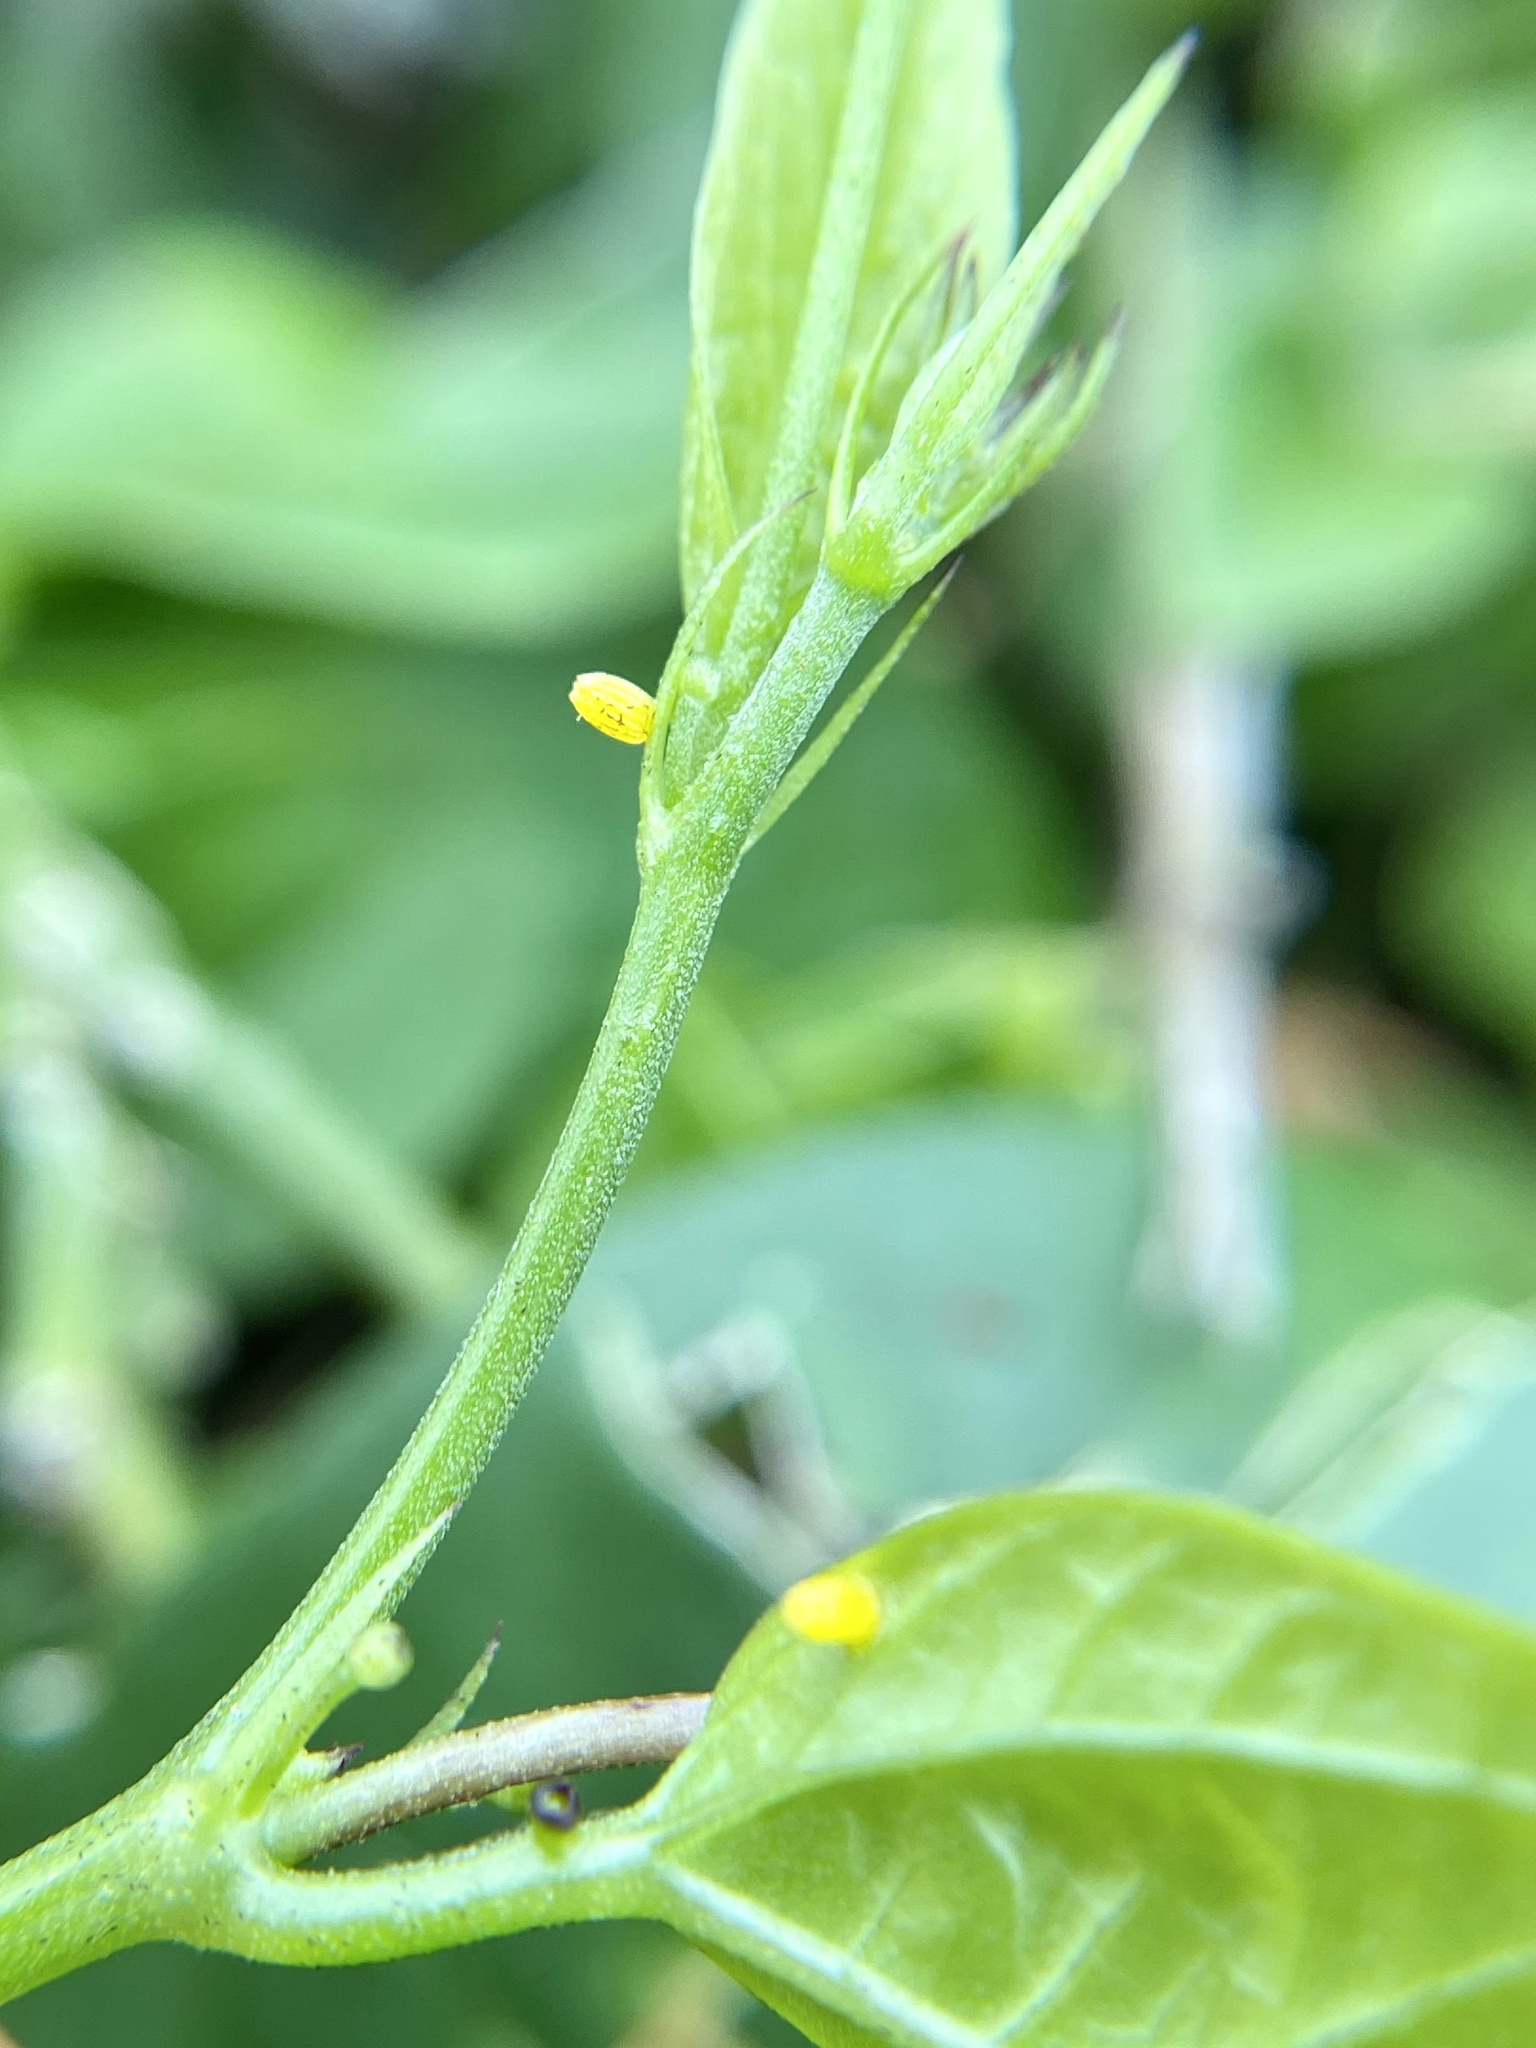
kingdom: Animalia
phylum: Arthropoda
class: Insecta
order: Lepidoptera
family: Nymphalidae
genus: Heliconius
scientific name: Heliconius charithonia
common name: Zebra long wing
